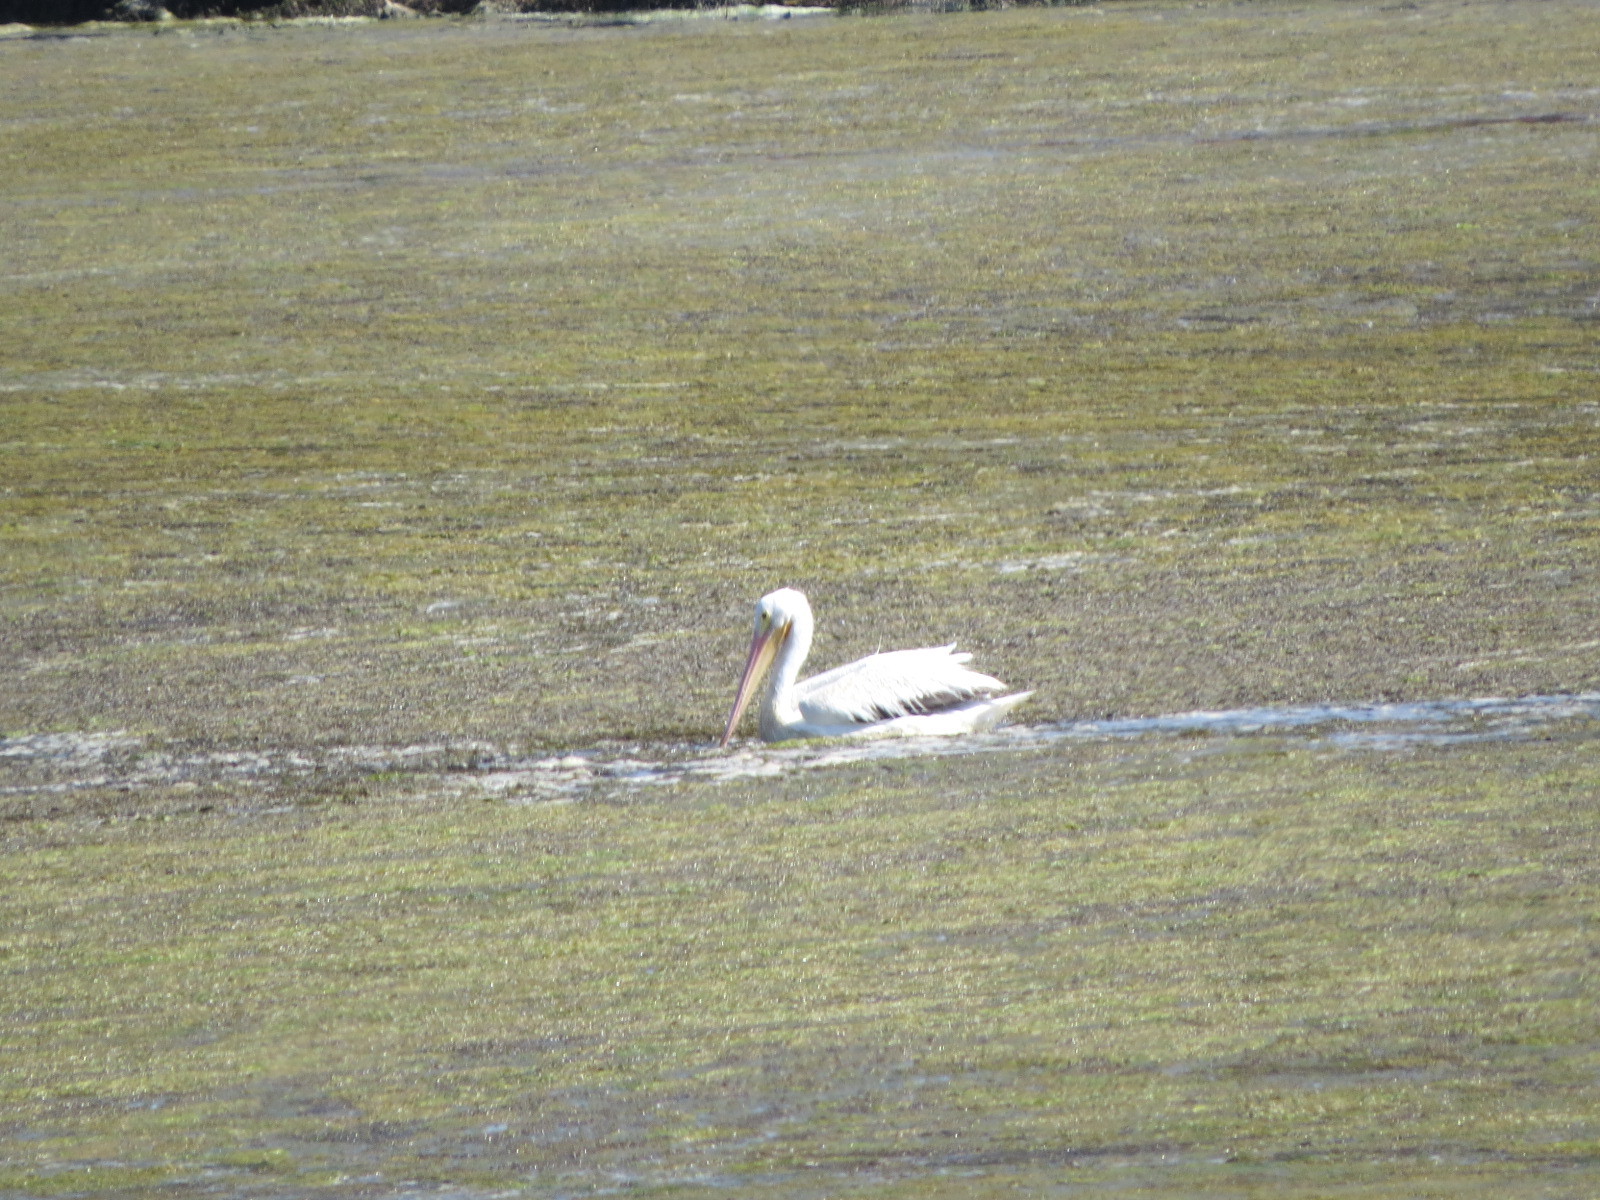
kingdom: Animalia
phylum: Chordata
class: Aves
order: Pelecaniformes
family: Pelecanidae
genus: Pelecanus
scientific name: Pelecanus erythrorhynchos
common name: American white pelican
